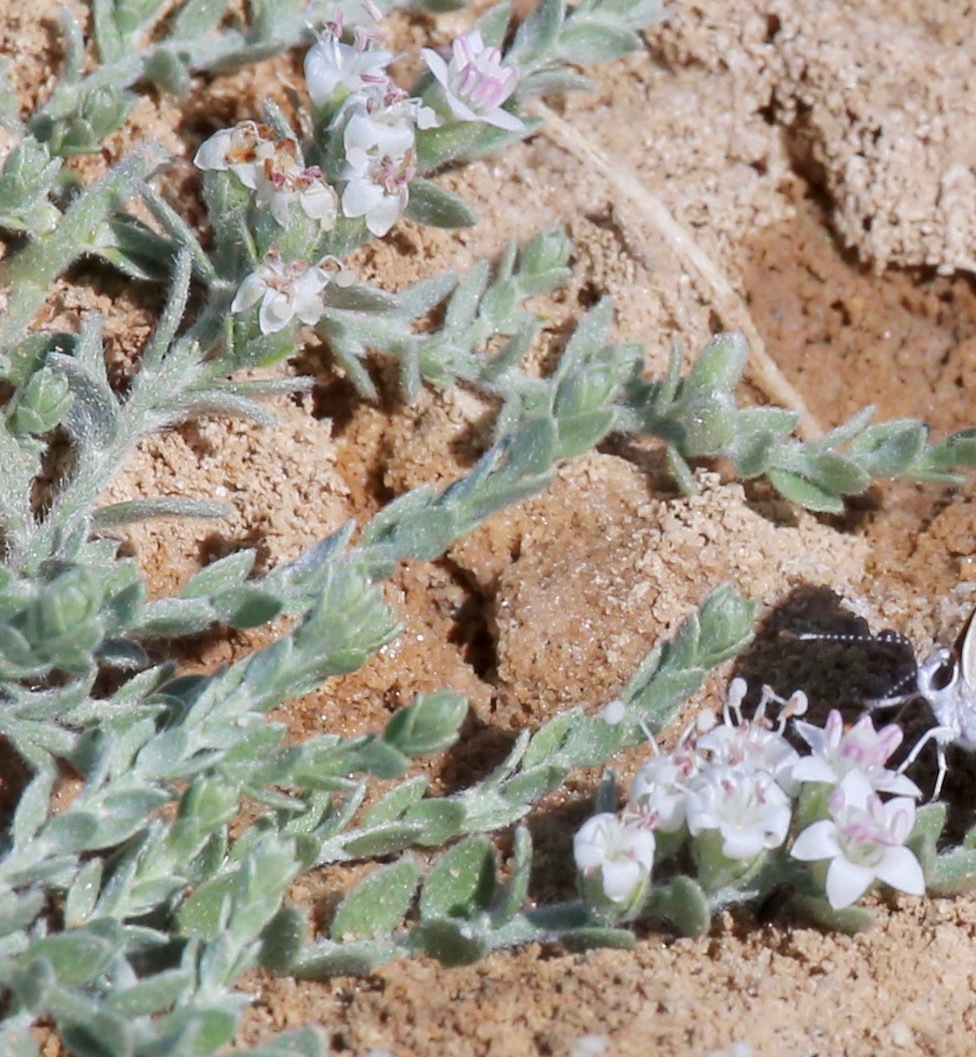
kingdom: Plantae
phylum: Tracheophyta
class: Magnoliopsida
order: Solanales
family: Convolvulaceae
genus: Cressa
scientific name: Cressa truxillensis
